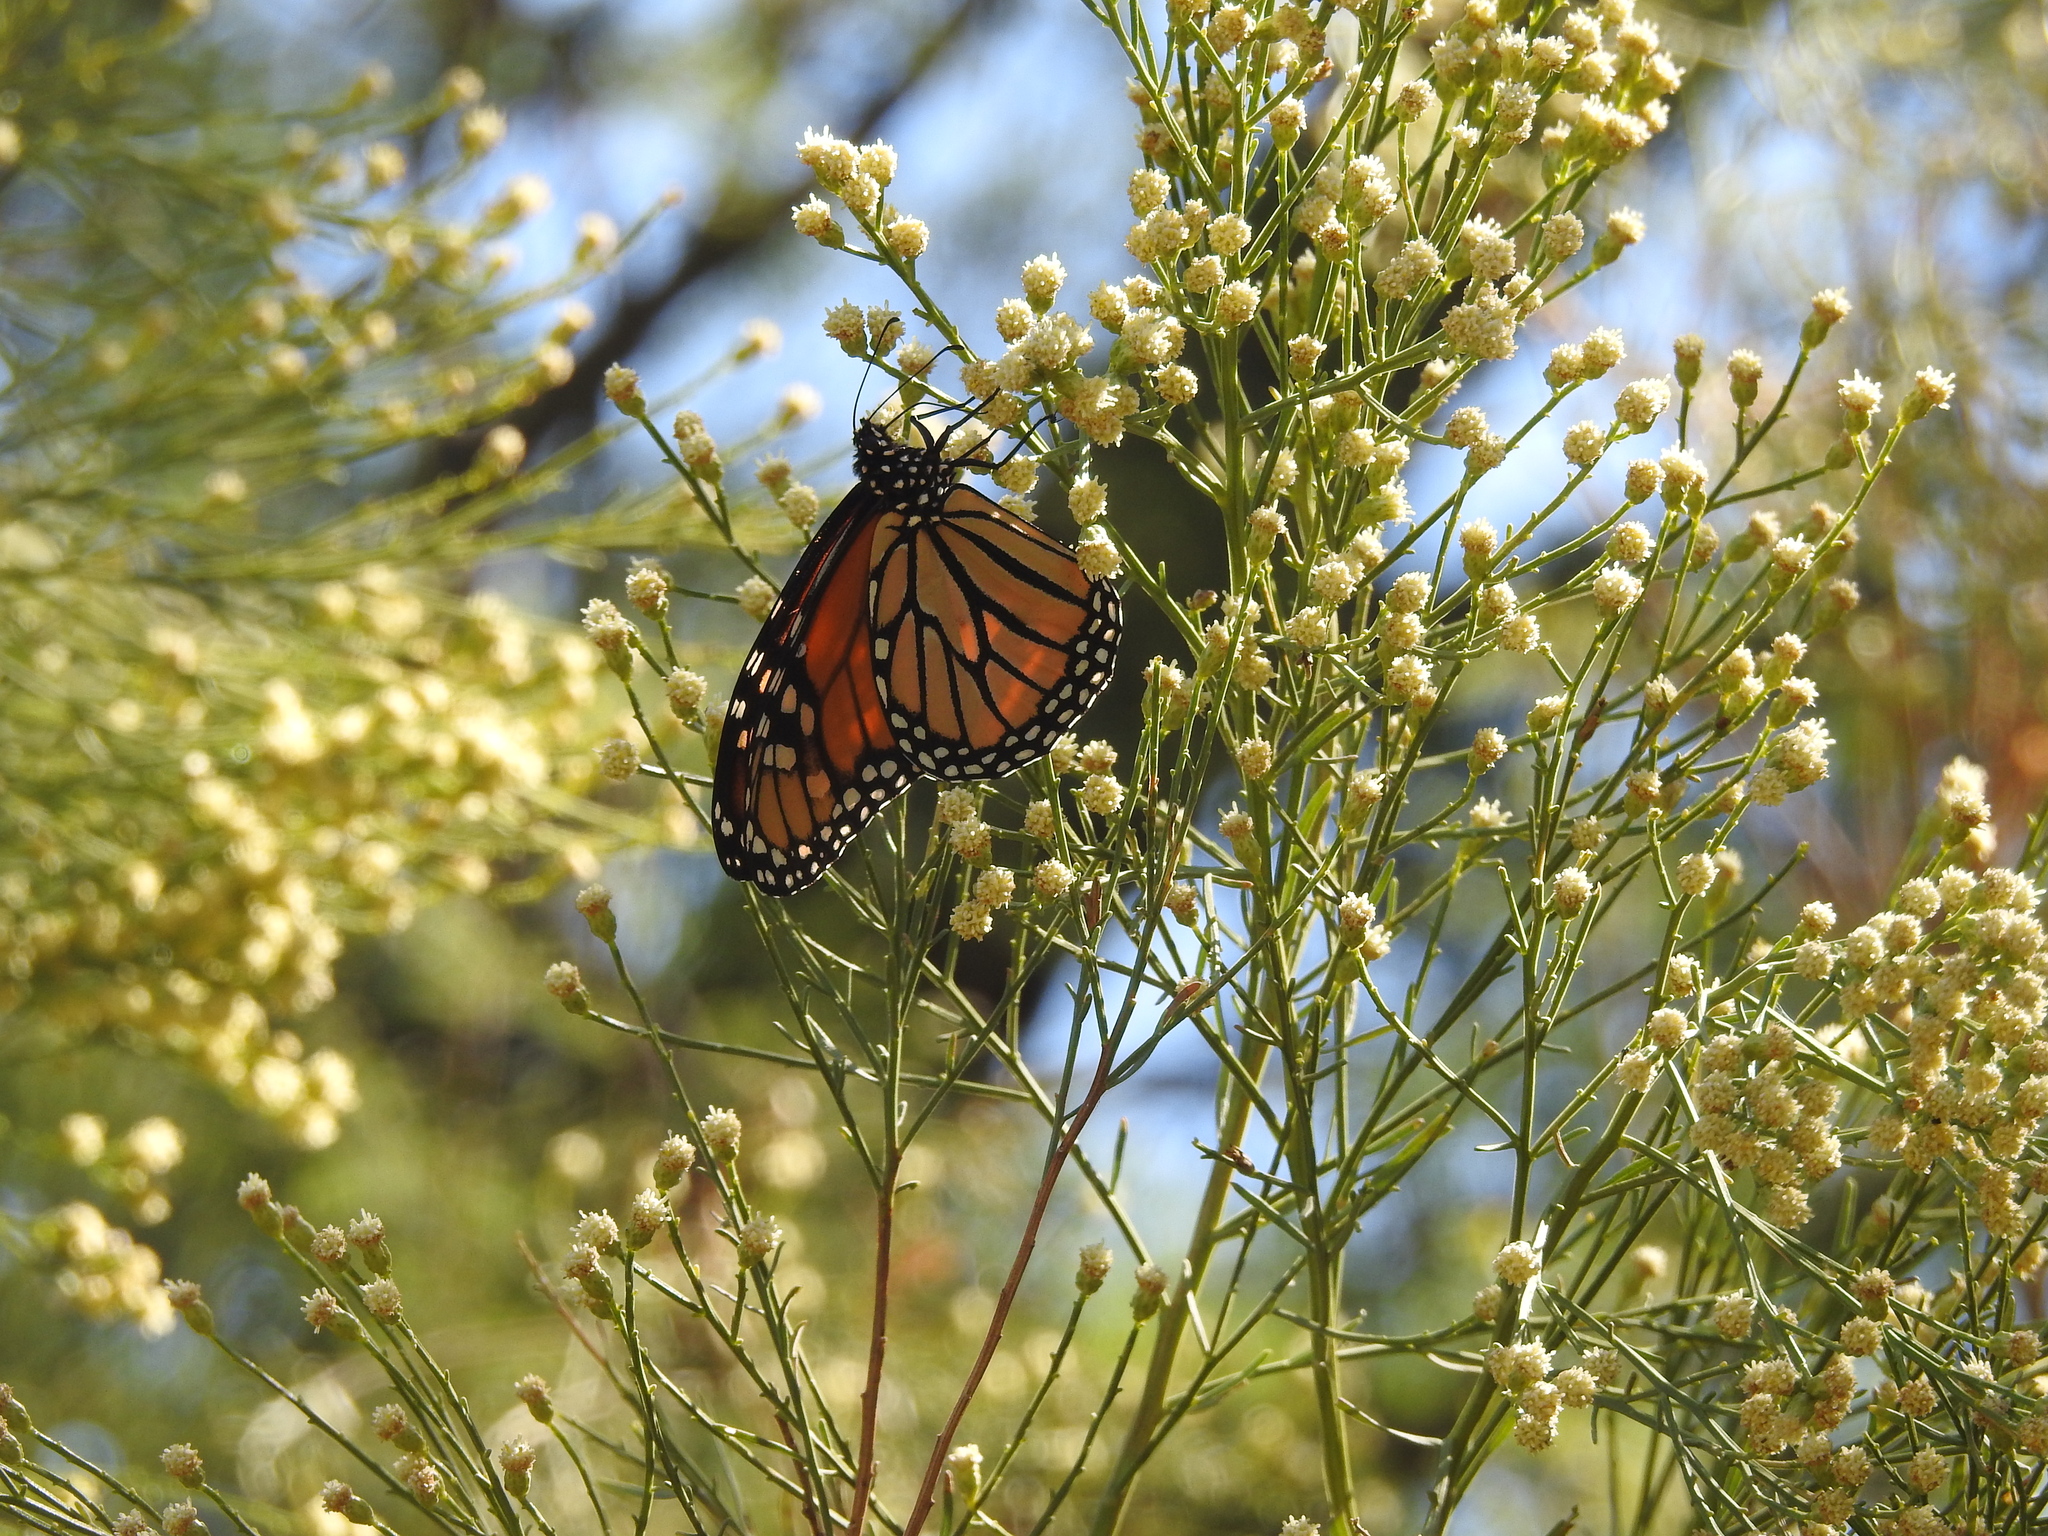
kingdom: Animalia
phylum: Arthropoda
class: Insecta
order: Lepidoptera
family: Nymphalidae
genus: Danaus
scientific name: Danaus plexippus
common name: Monarch
